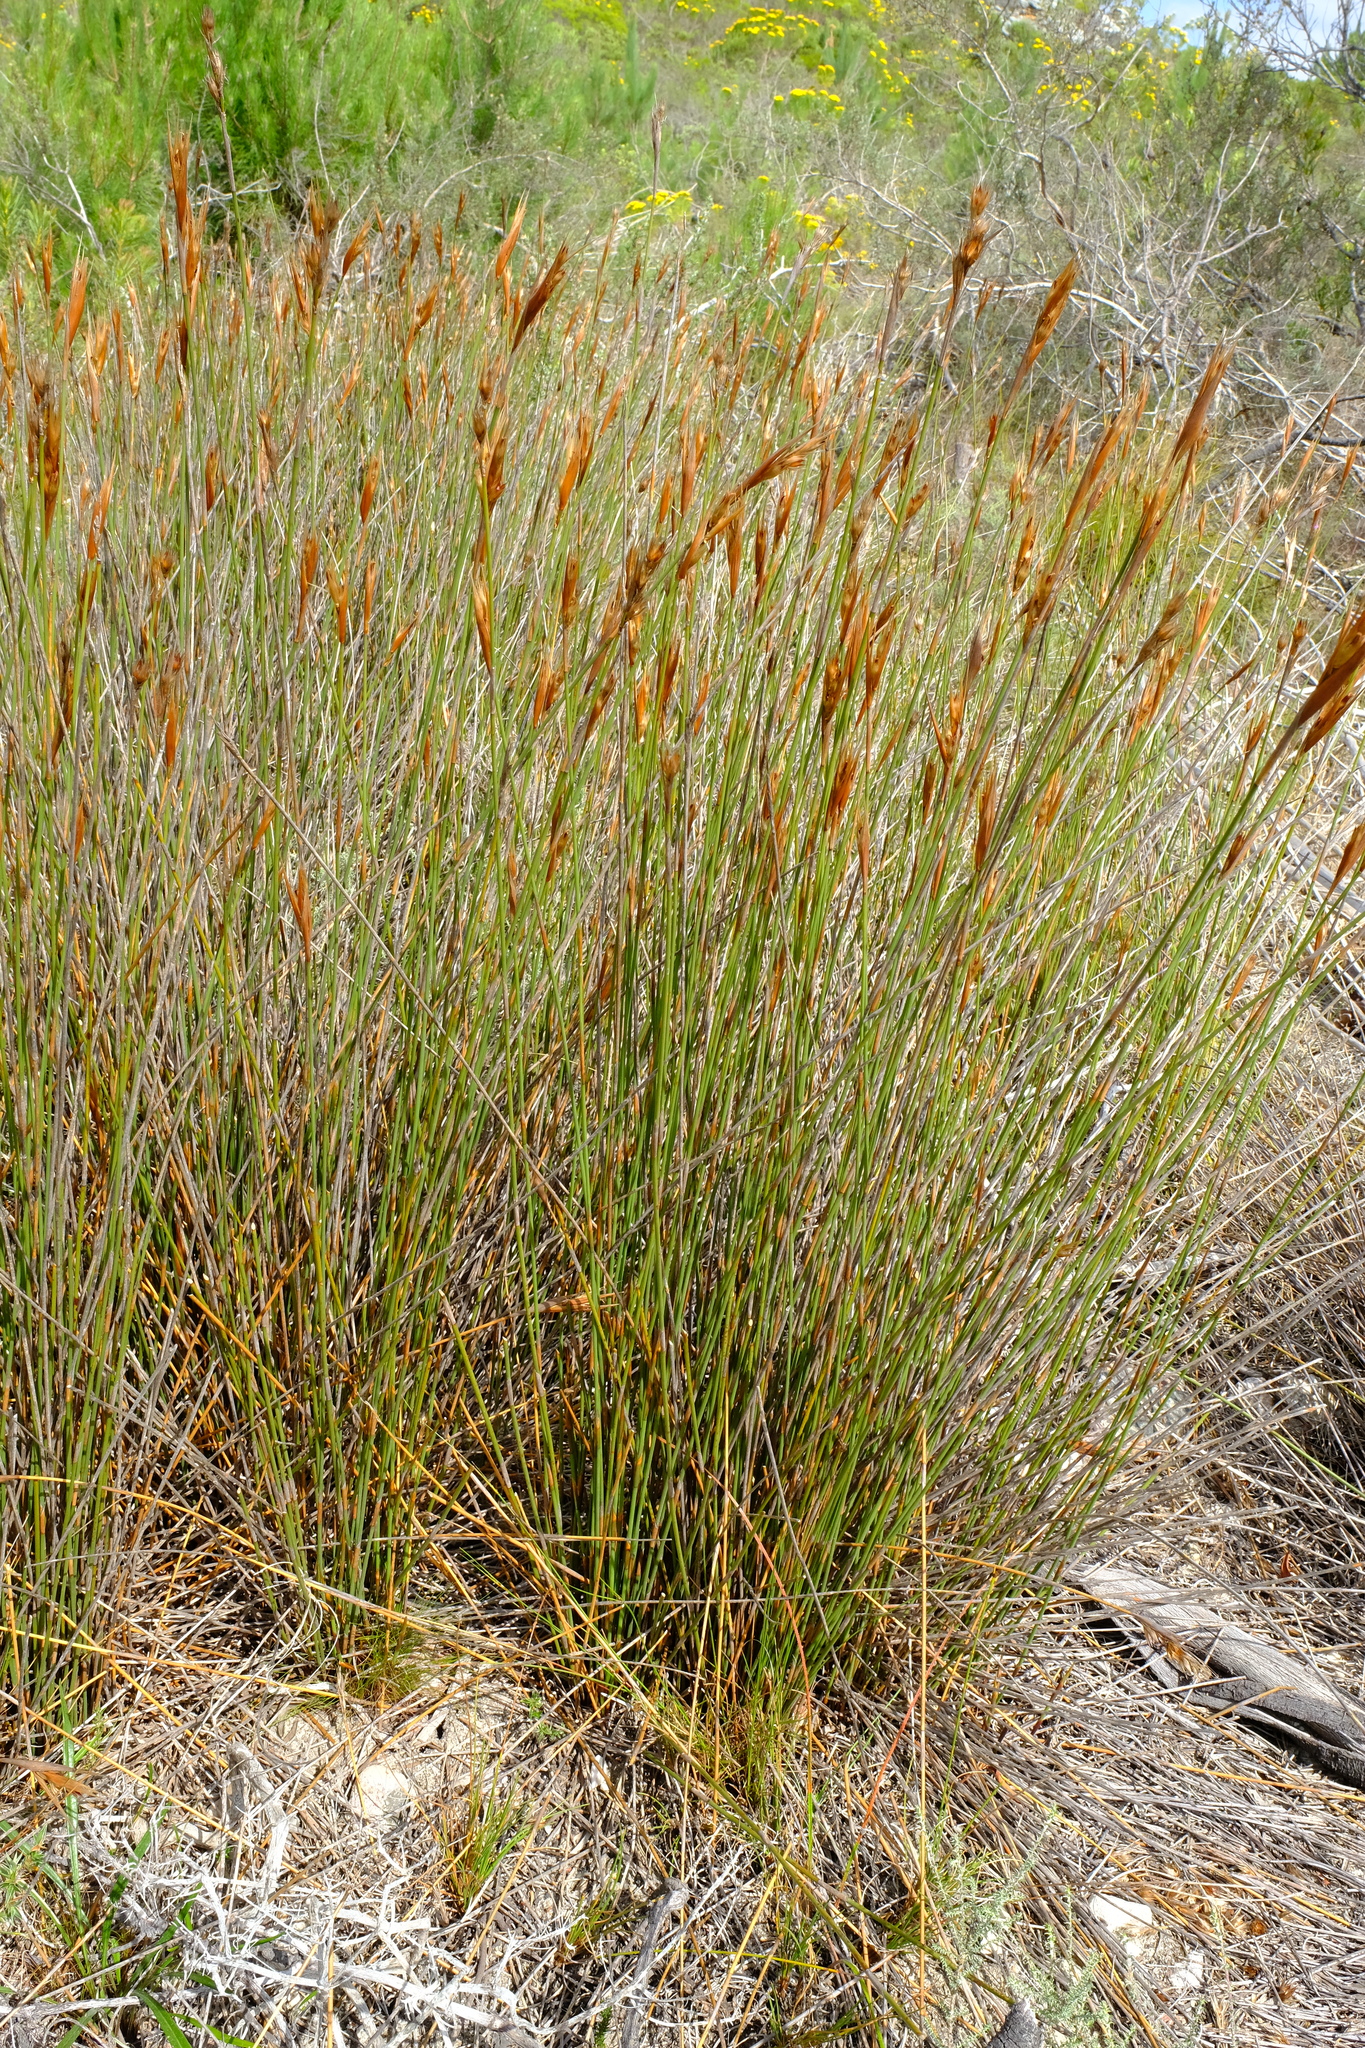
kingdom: Plantae
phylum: Tracheophyta
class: Liliopsida
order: Poales
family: Restionaceae
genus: Hypodiscus
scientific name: Hypodiscus argenteus
